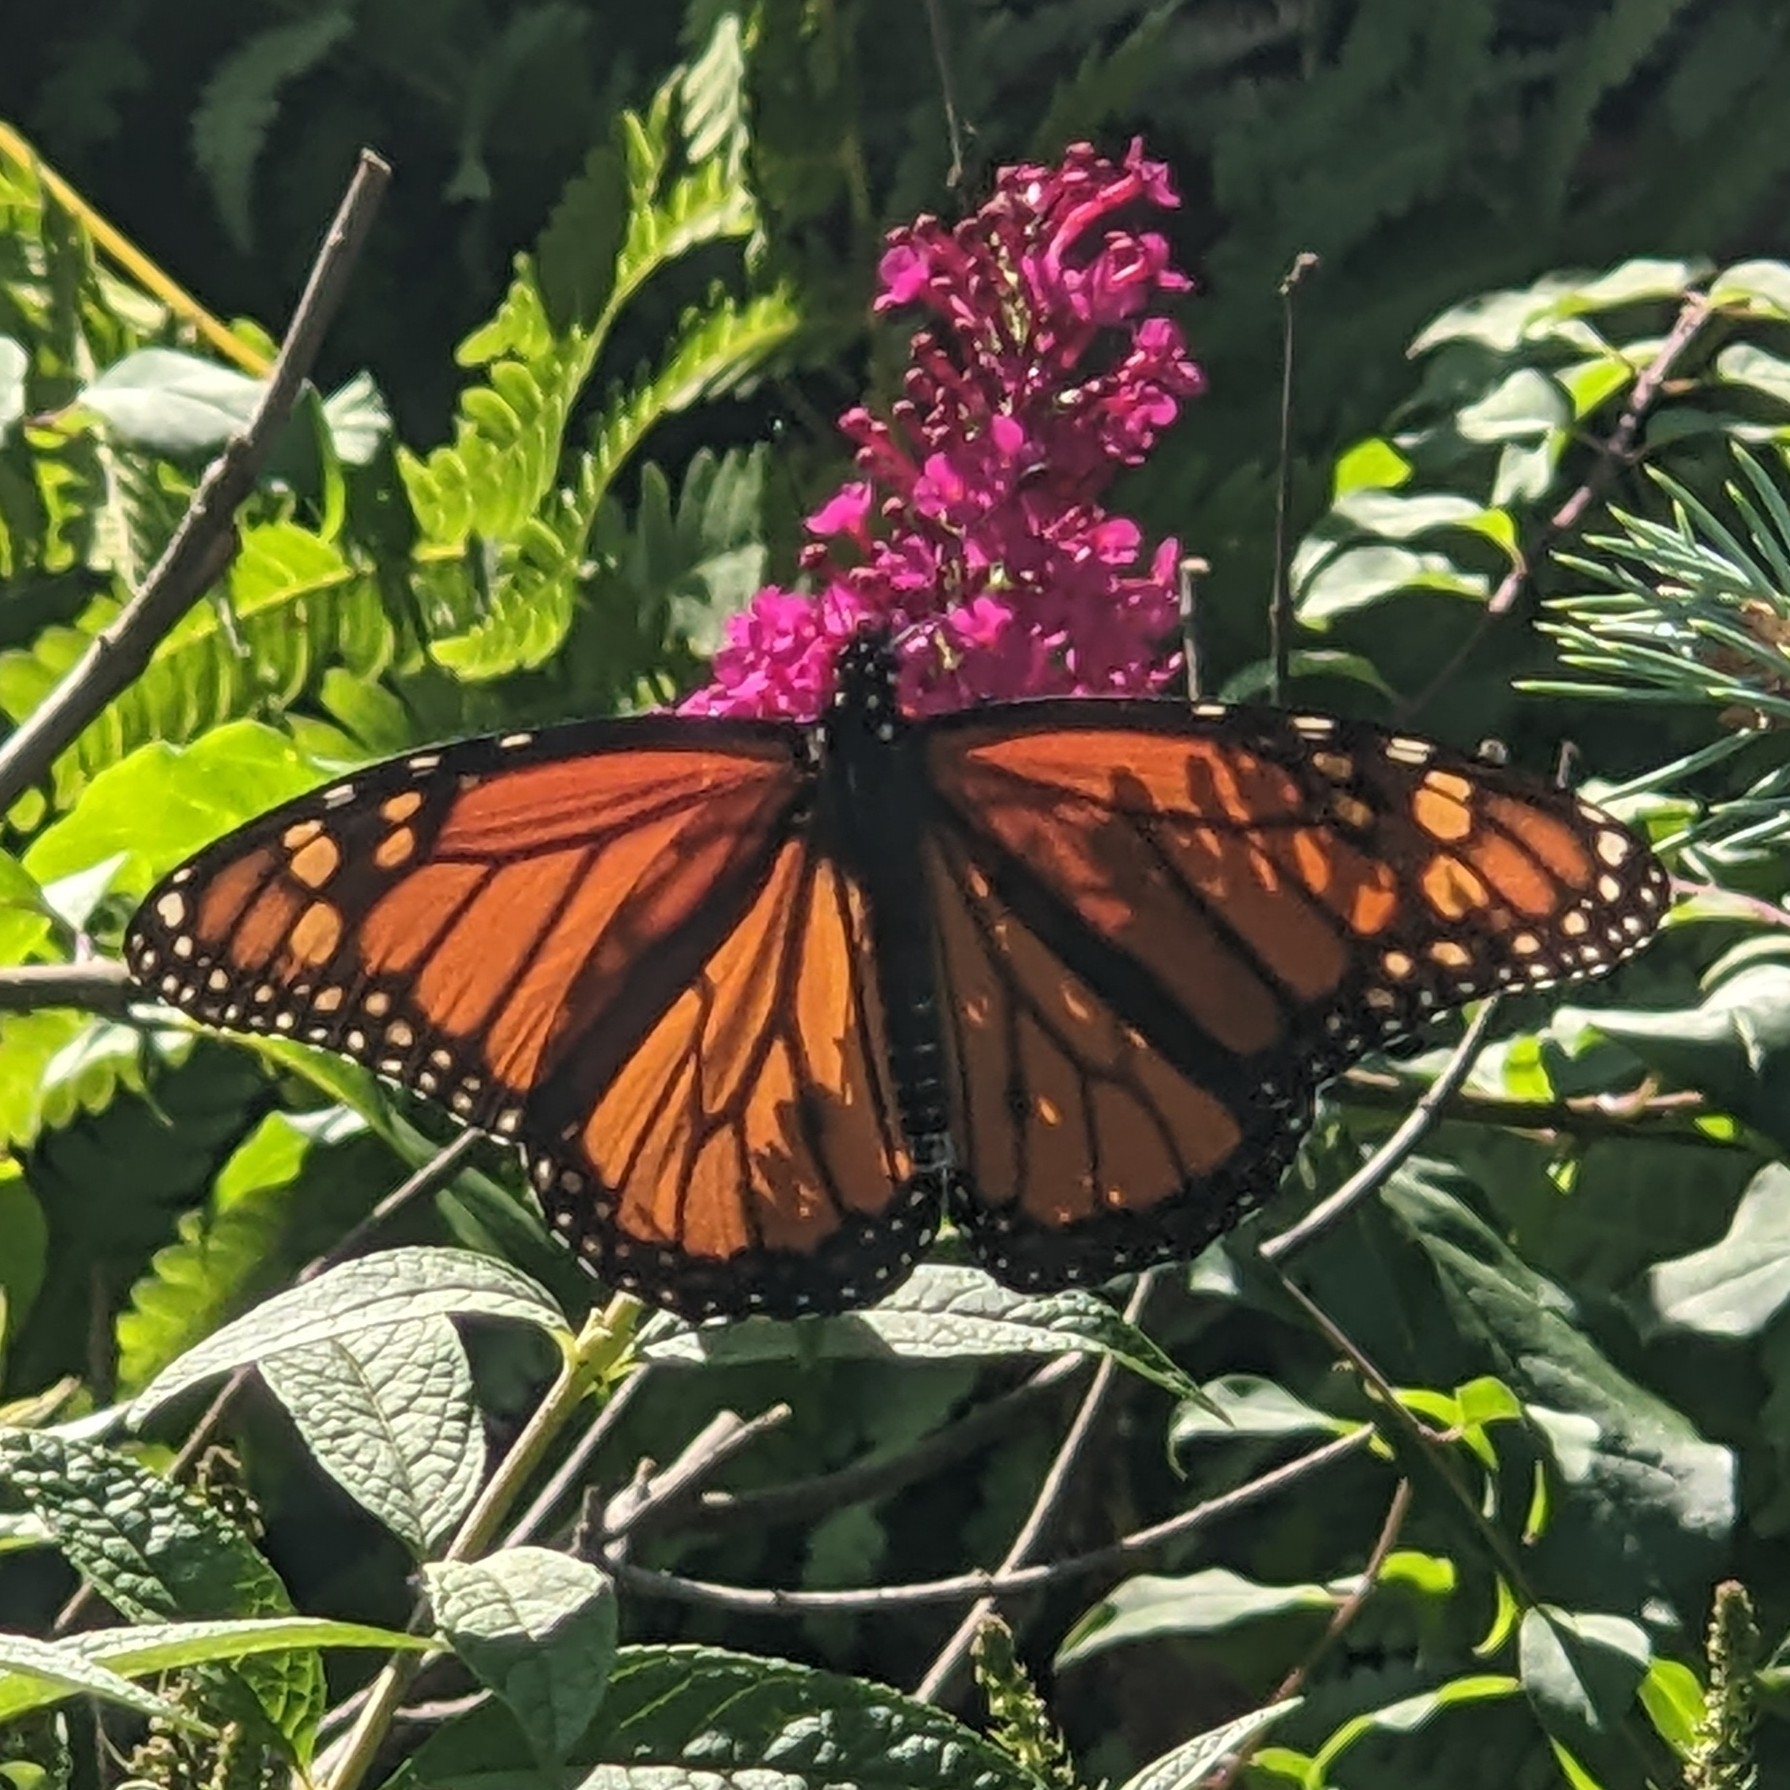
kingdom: Animalia
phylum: Arthropoda
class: Insecta
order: Lepidoptera
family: Nymphalidae
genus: Danaus
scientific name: Danaus plexippus
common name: Monarch
